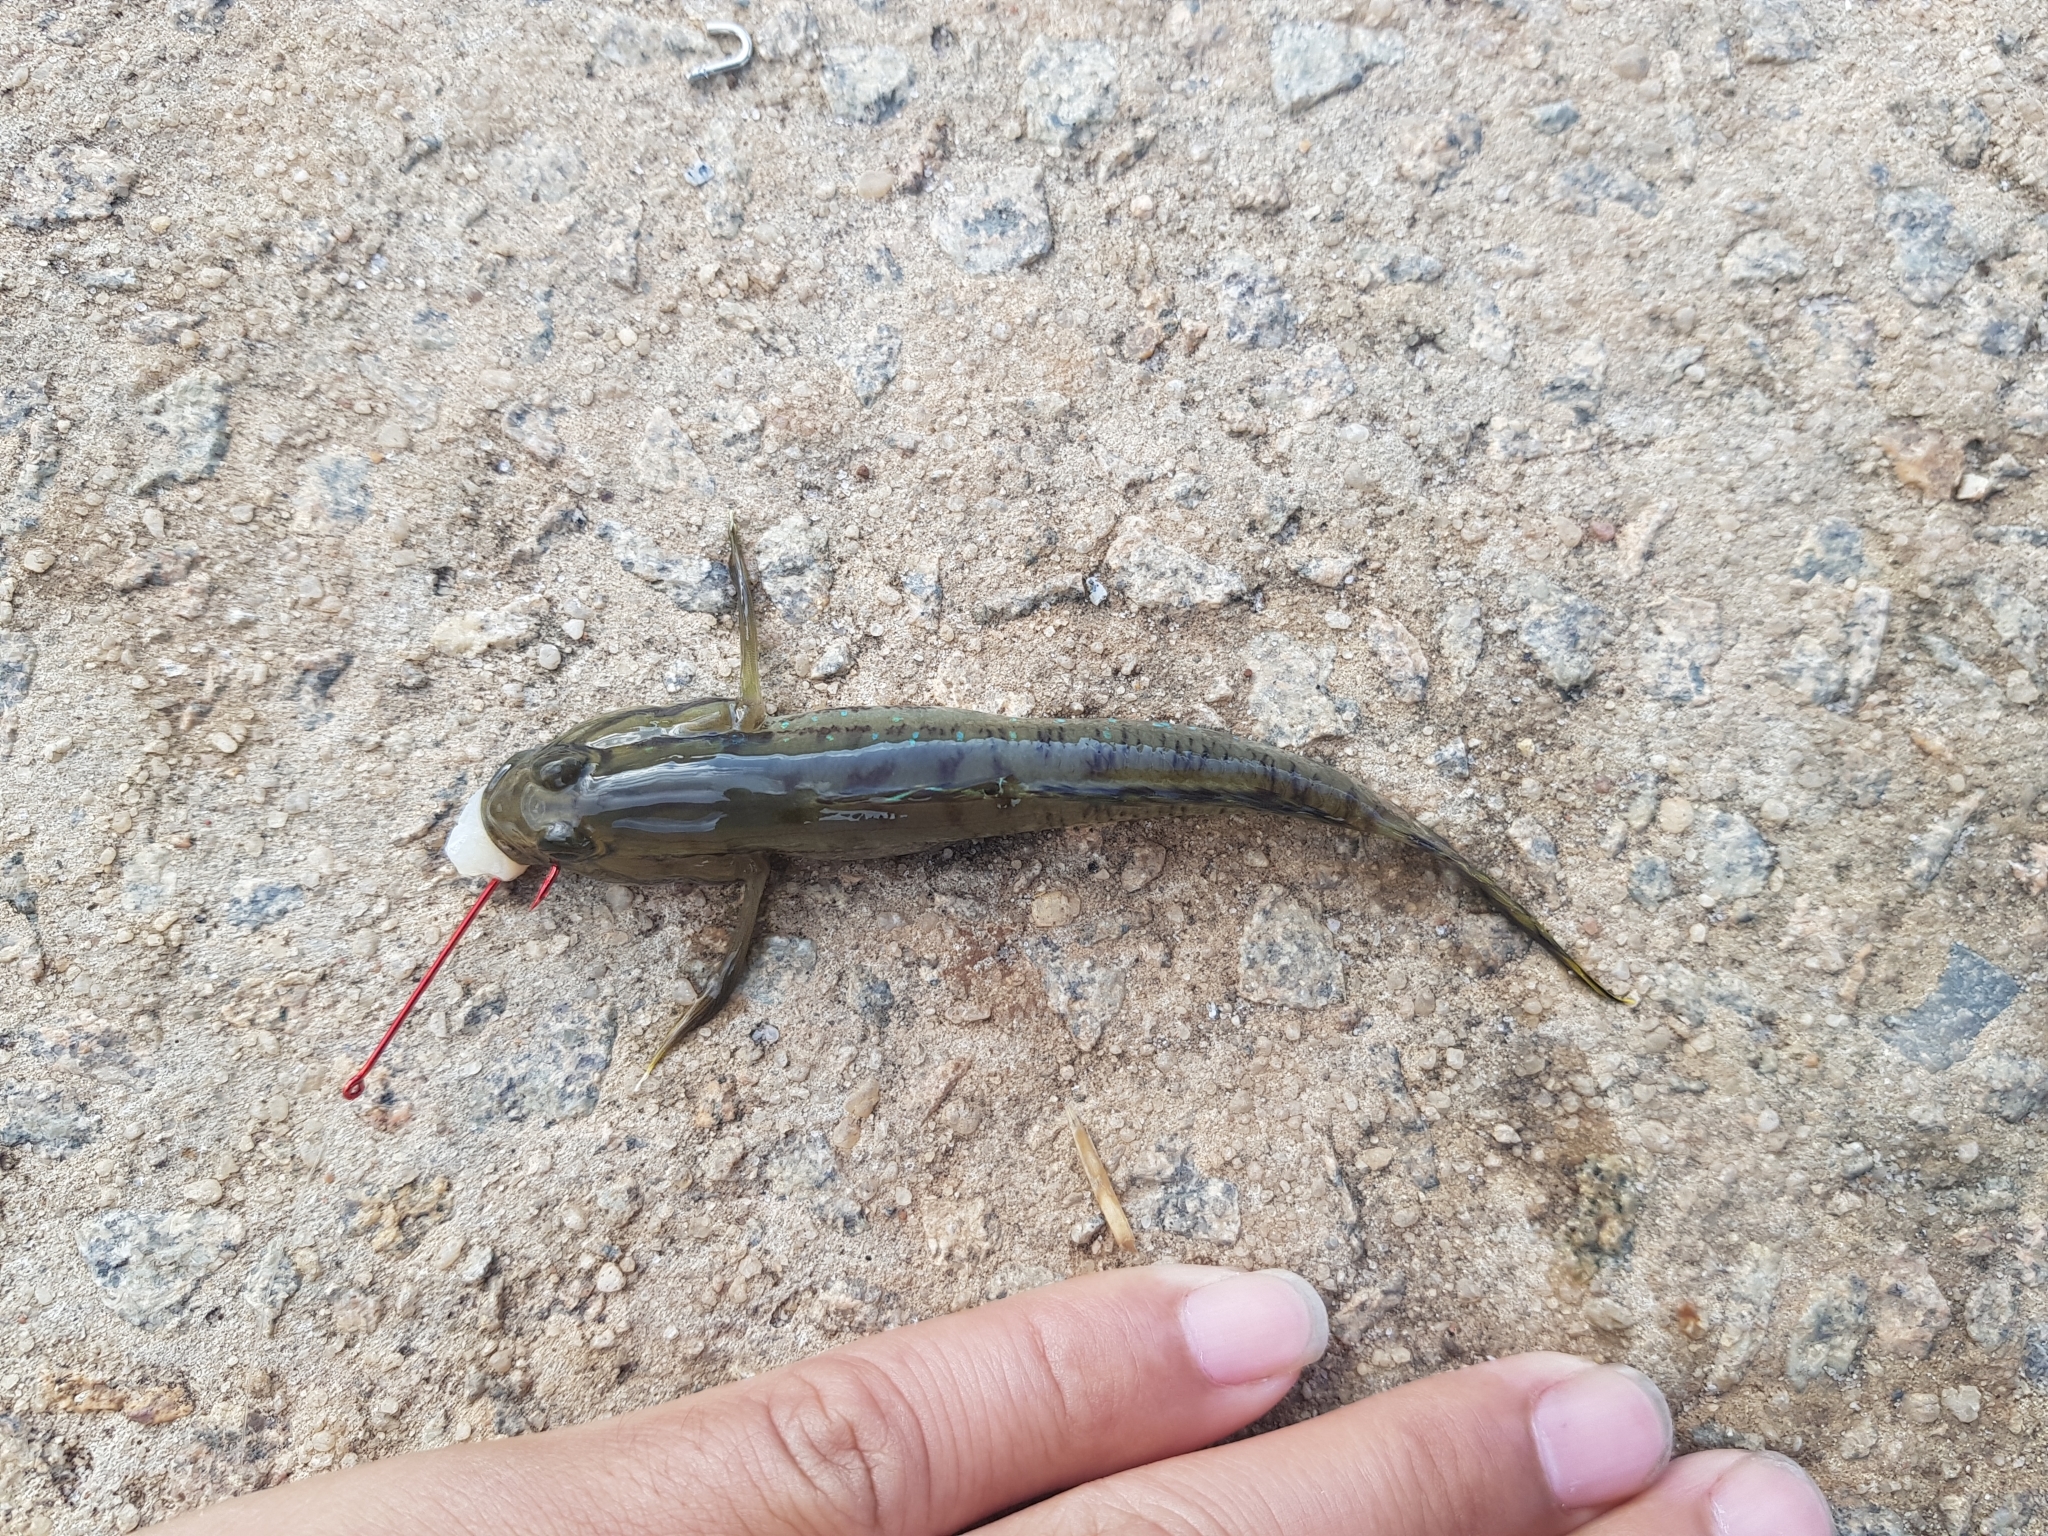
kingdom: Animalia
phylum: Chordata
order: Perciformes
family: Gobiidae
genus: Arenigobius
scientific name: Arenigobius bifrenatus
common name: Bridled goby
